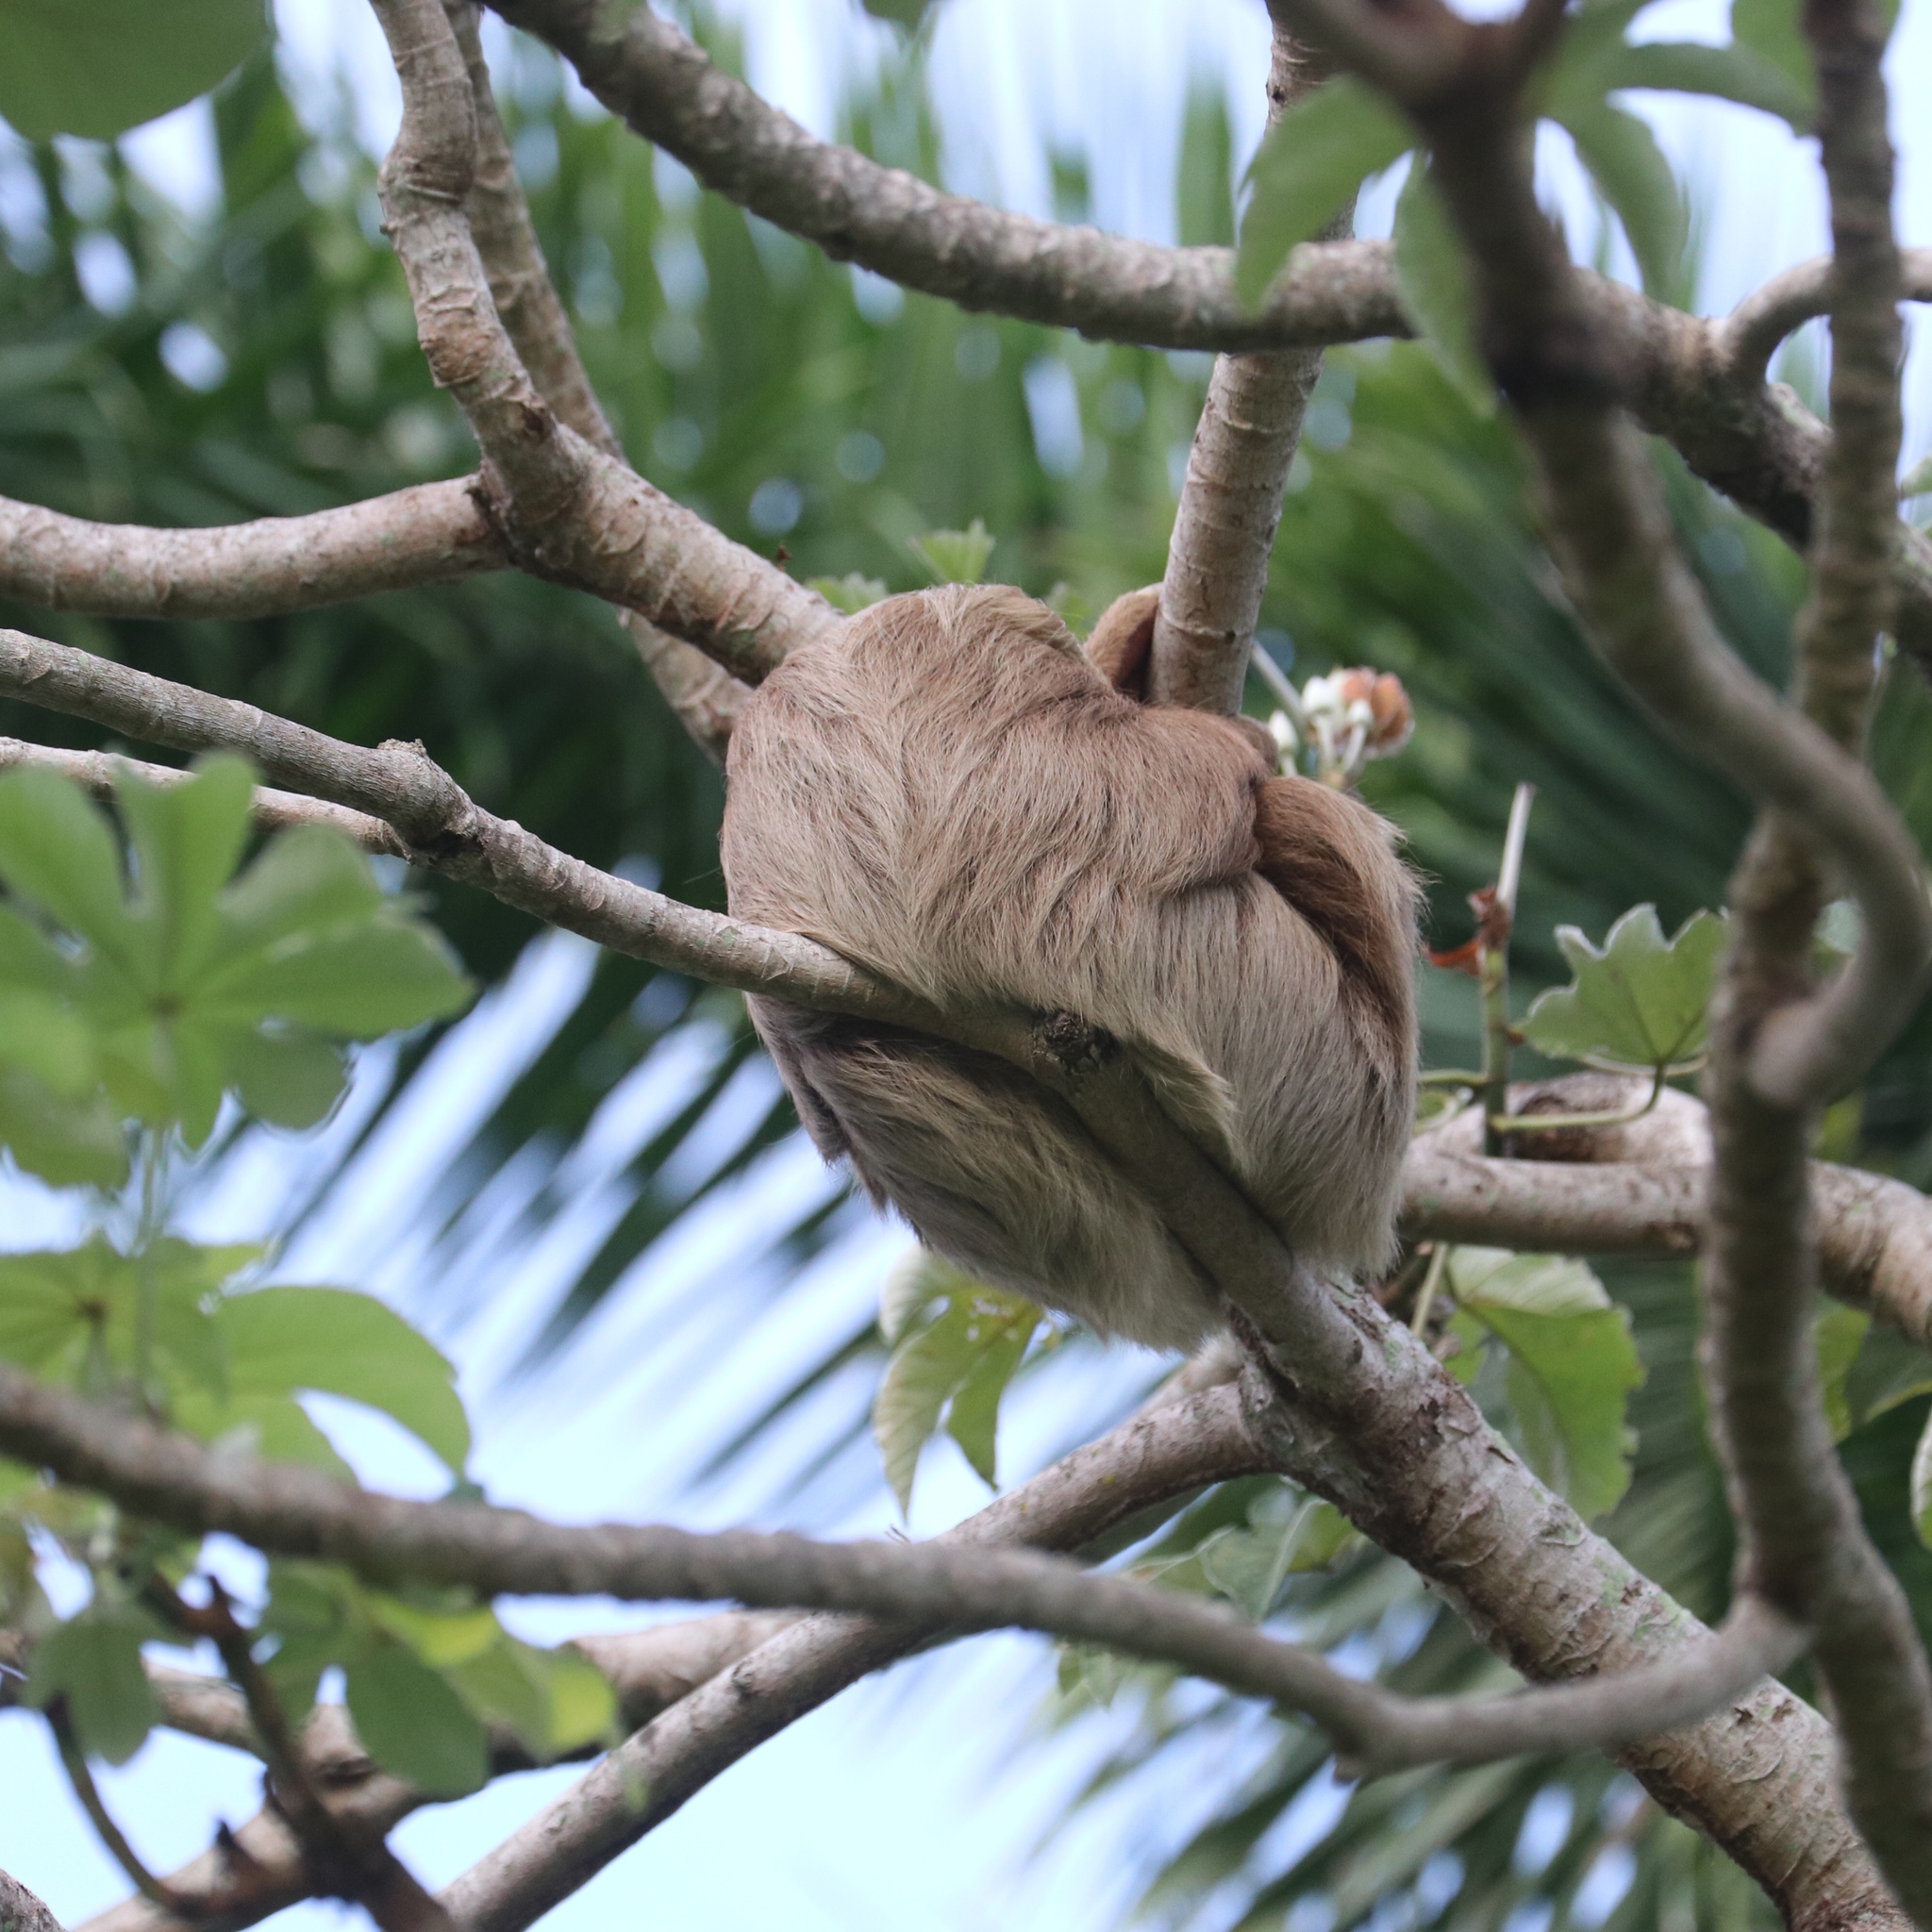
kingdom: Animalia
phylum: Chordata
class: Mammalia
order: Pilosa
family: Megalonychidae
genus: Choloepus
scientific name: Choloepus hoffmanni
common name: Hoffmann's two-toed sloth
